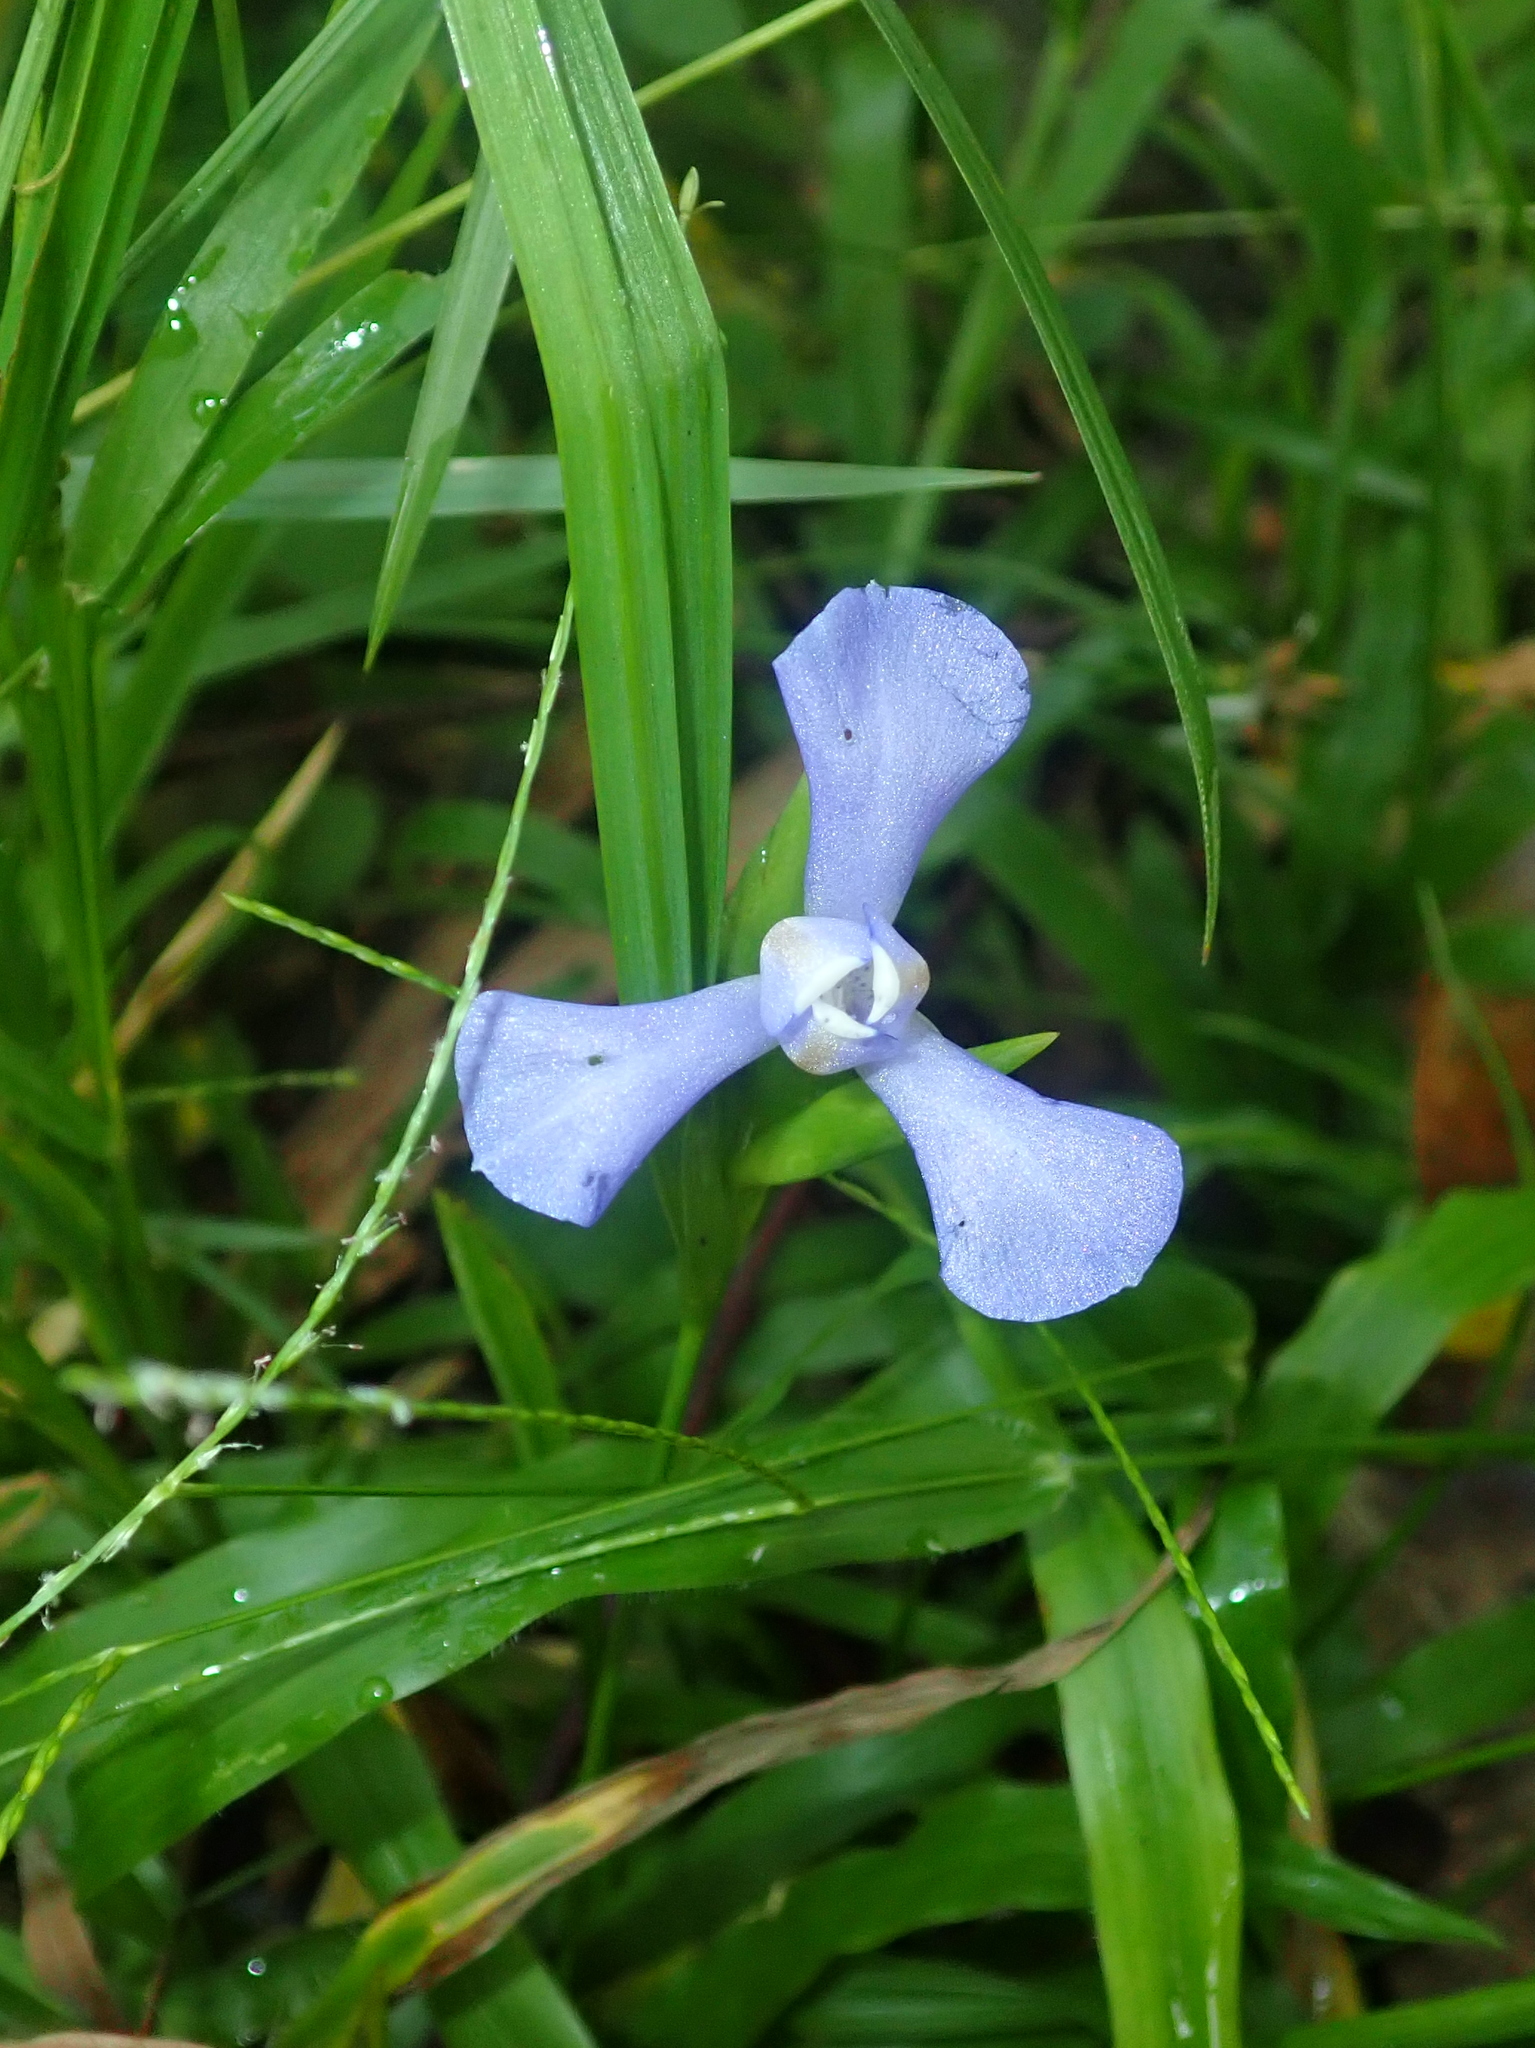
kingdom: Plantae
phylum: Tracheophyta
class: Liliopsida
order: Asparagales
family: Iridaceae
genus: Cipura
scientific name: Cipura paludosa
